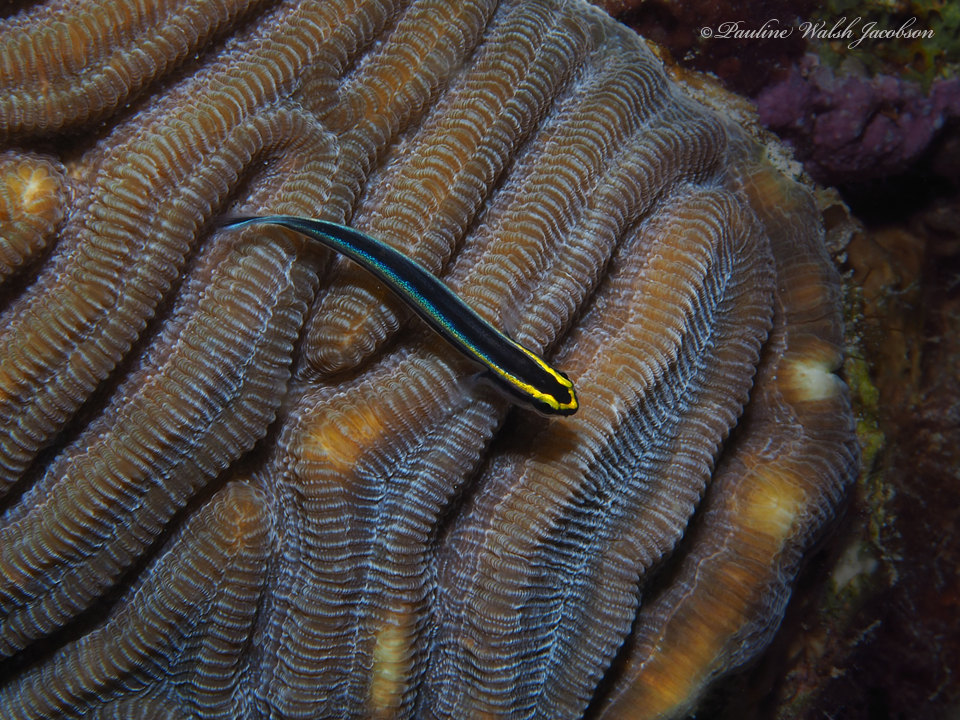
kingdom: Animalia
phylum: Chordata
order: Perciformes
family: Gobiidae
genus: Elacatinus
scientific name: Elacatinus evelynae
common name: Sharknose goby
